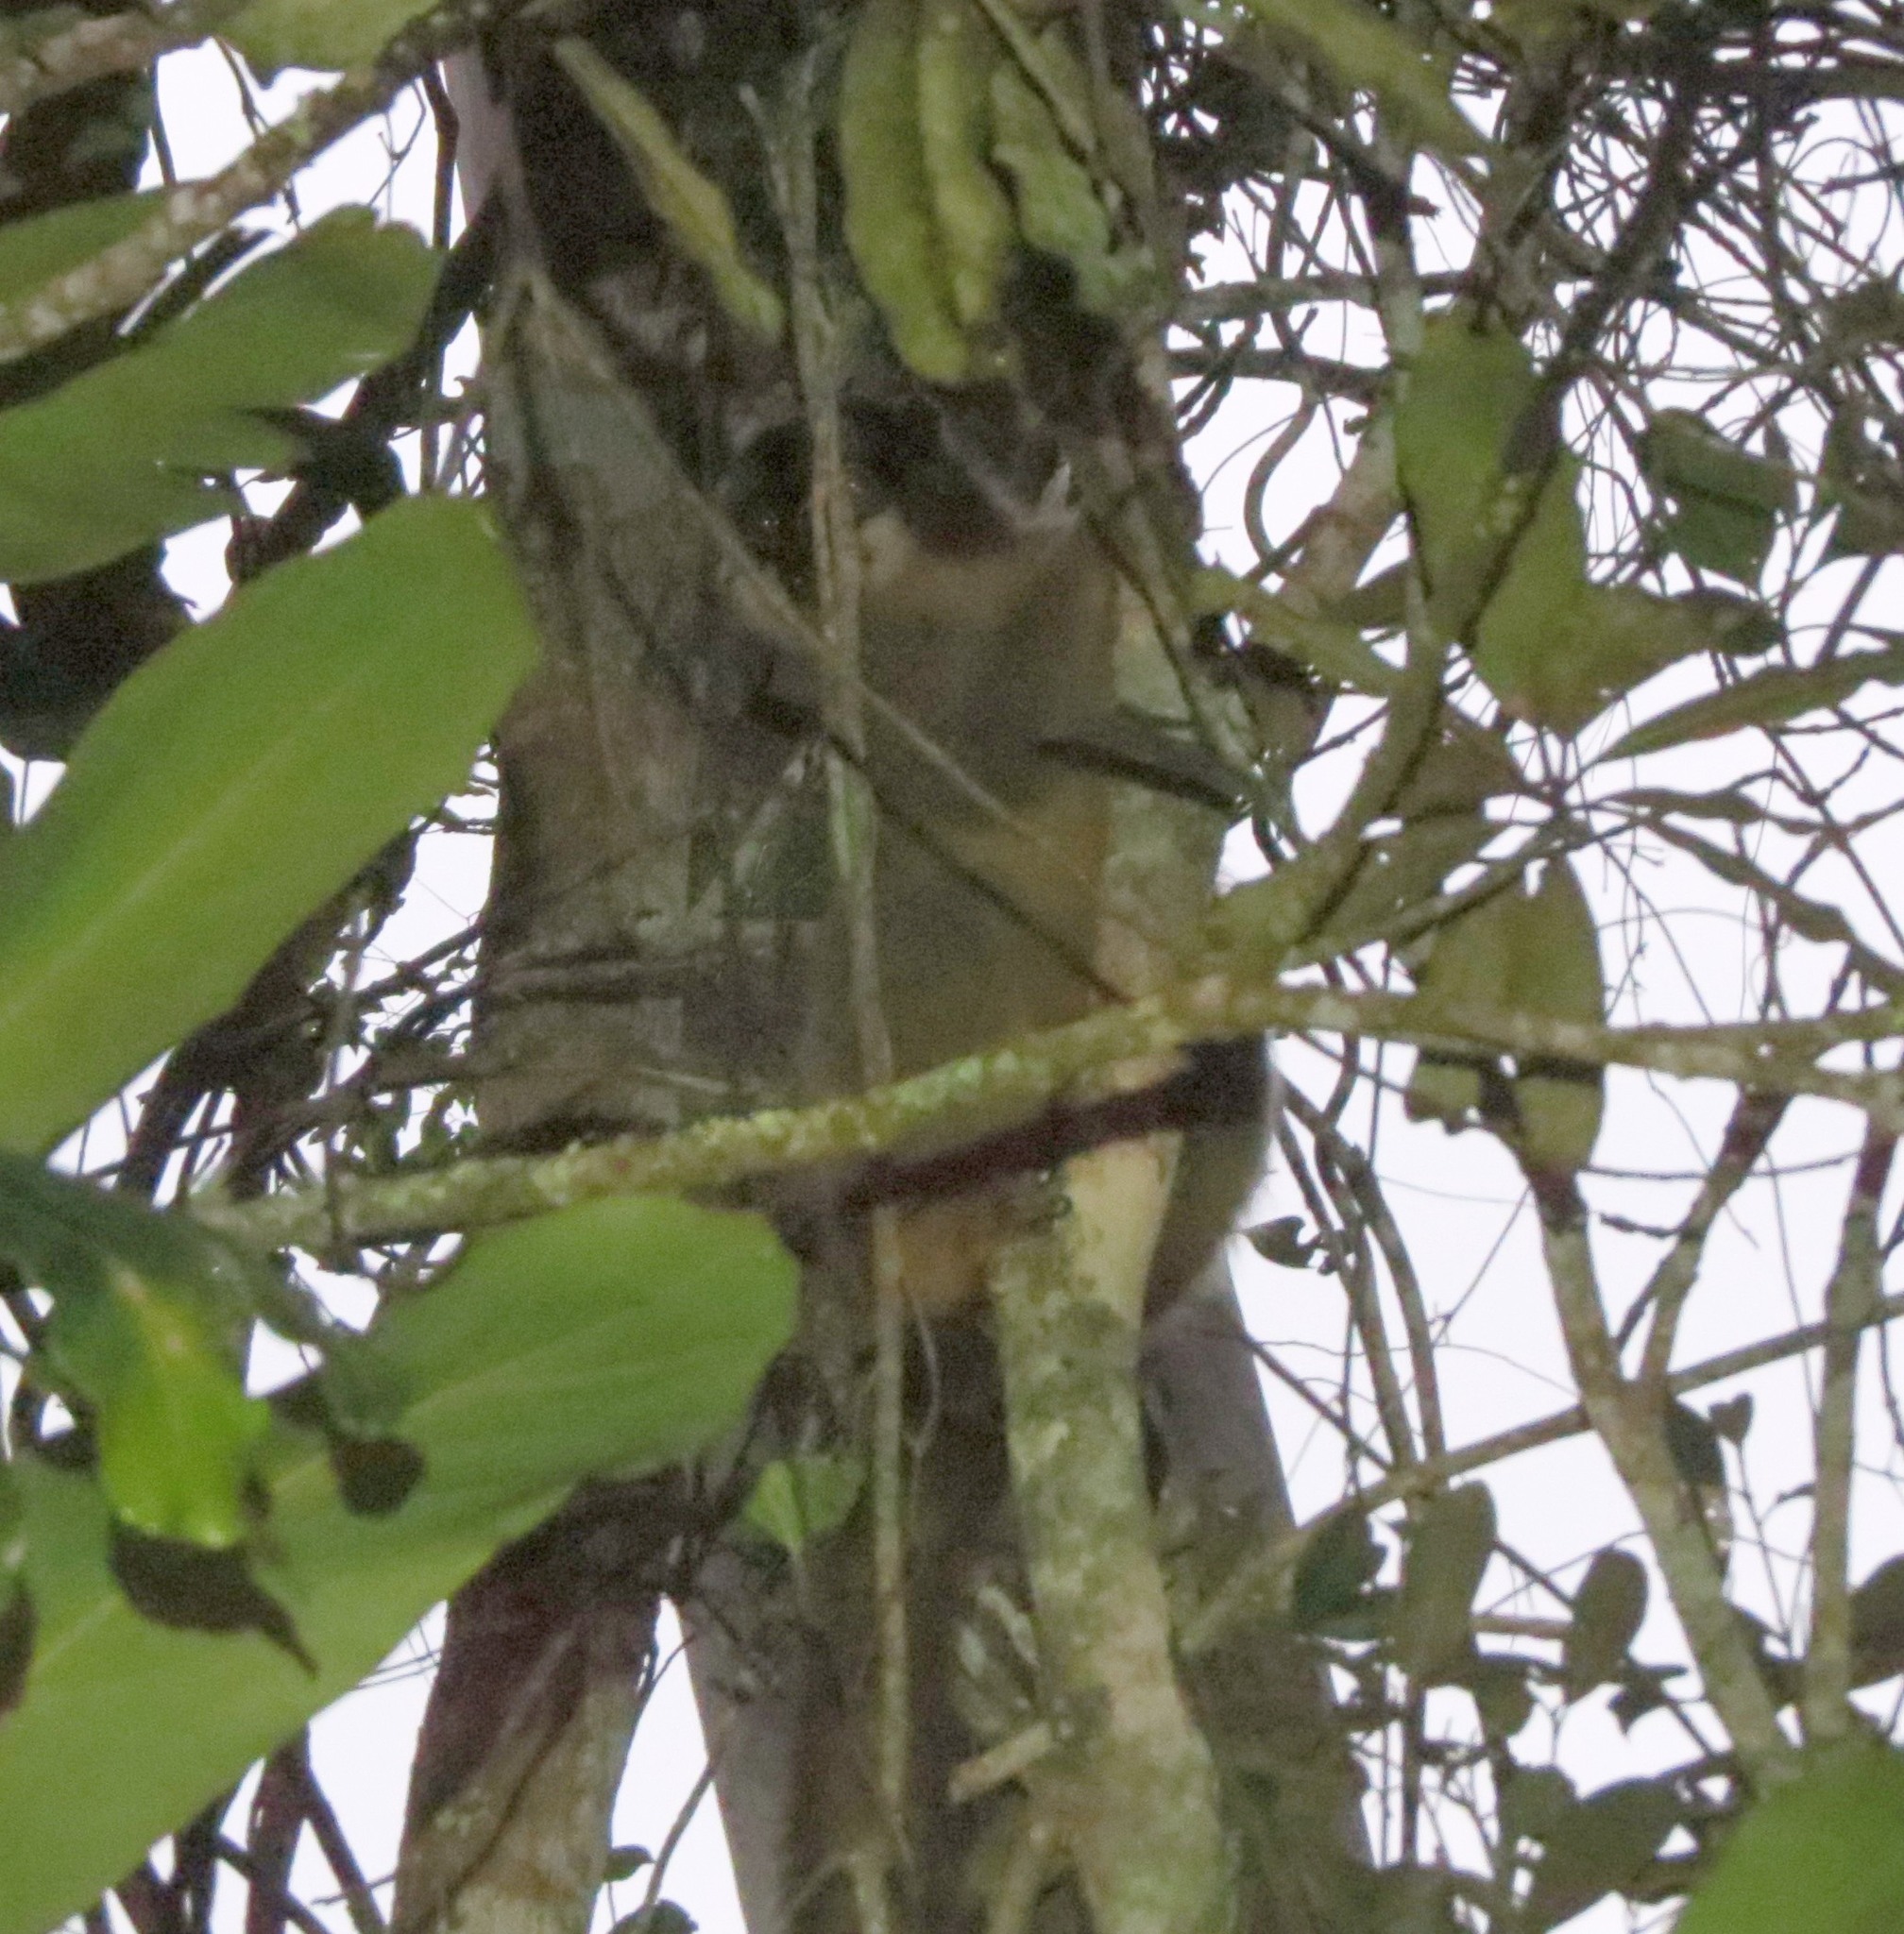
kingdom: Animalia
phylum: Chordata
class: Mammalia
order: Primates
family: Lemuridae
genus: Eulemur
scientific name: Eulemur fulvus
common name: Brown lemur
